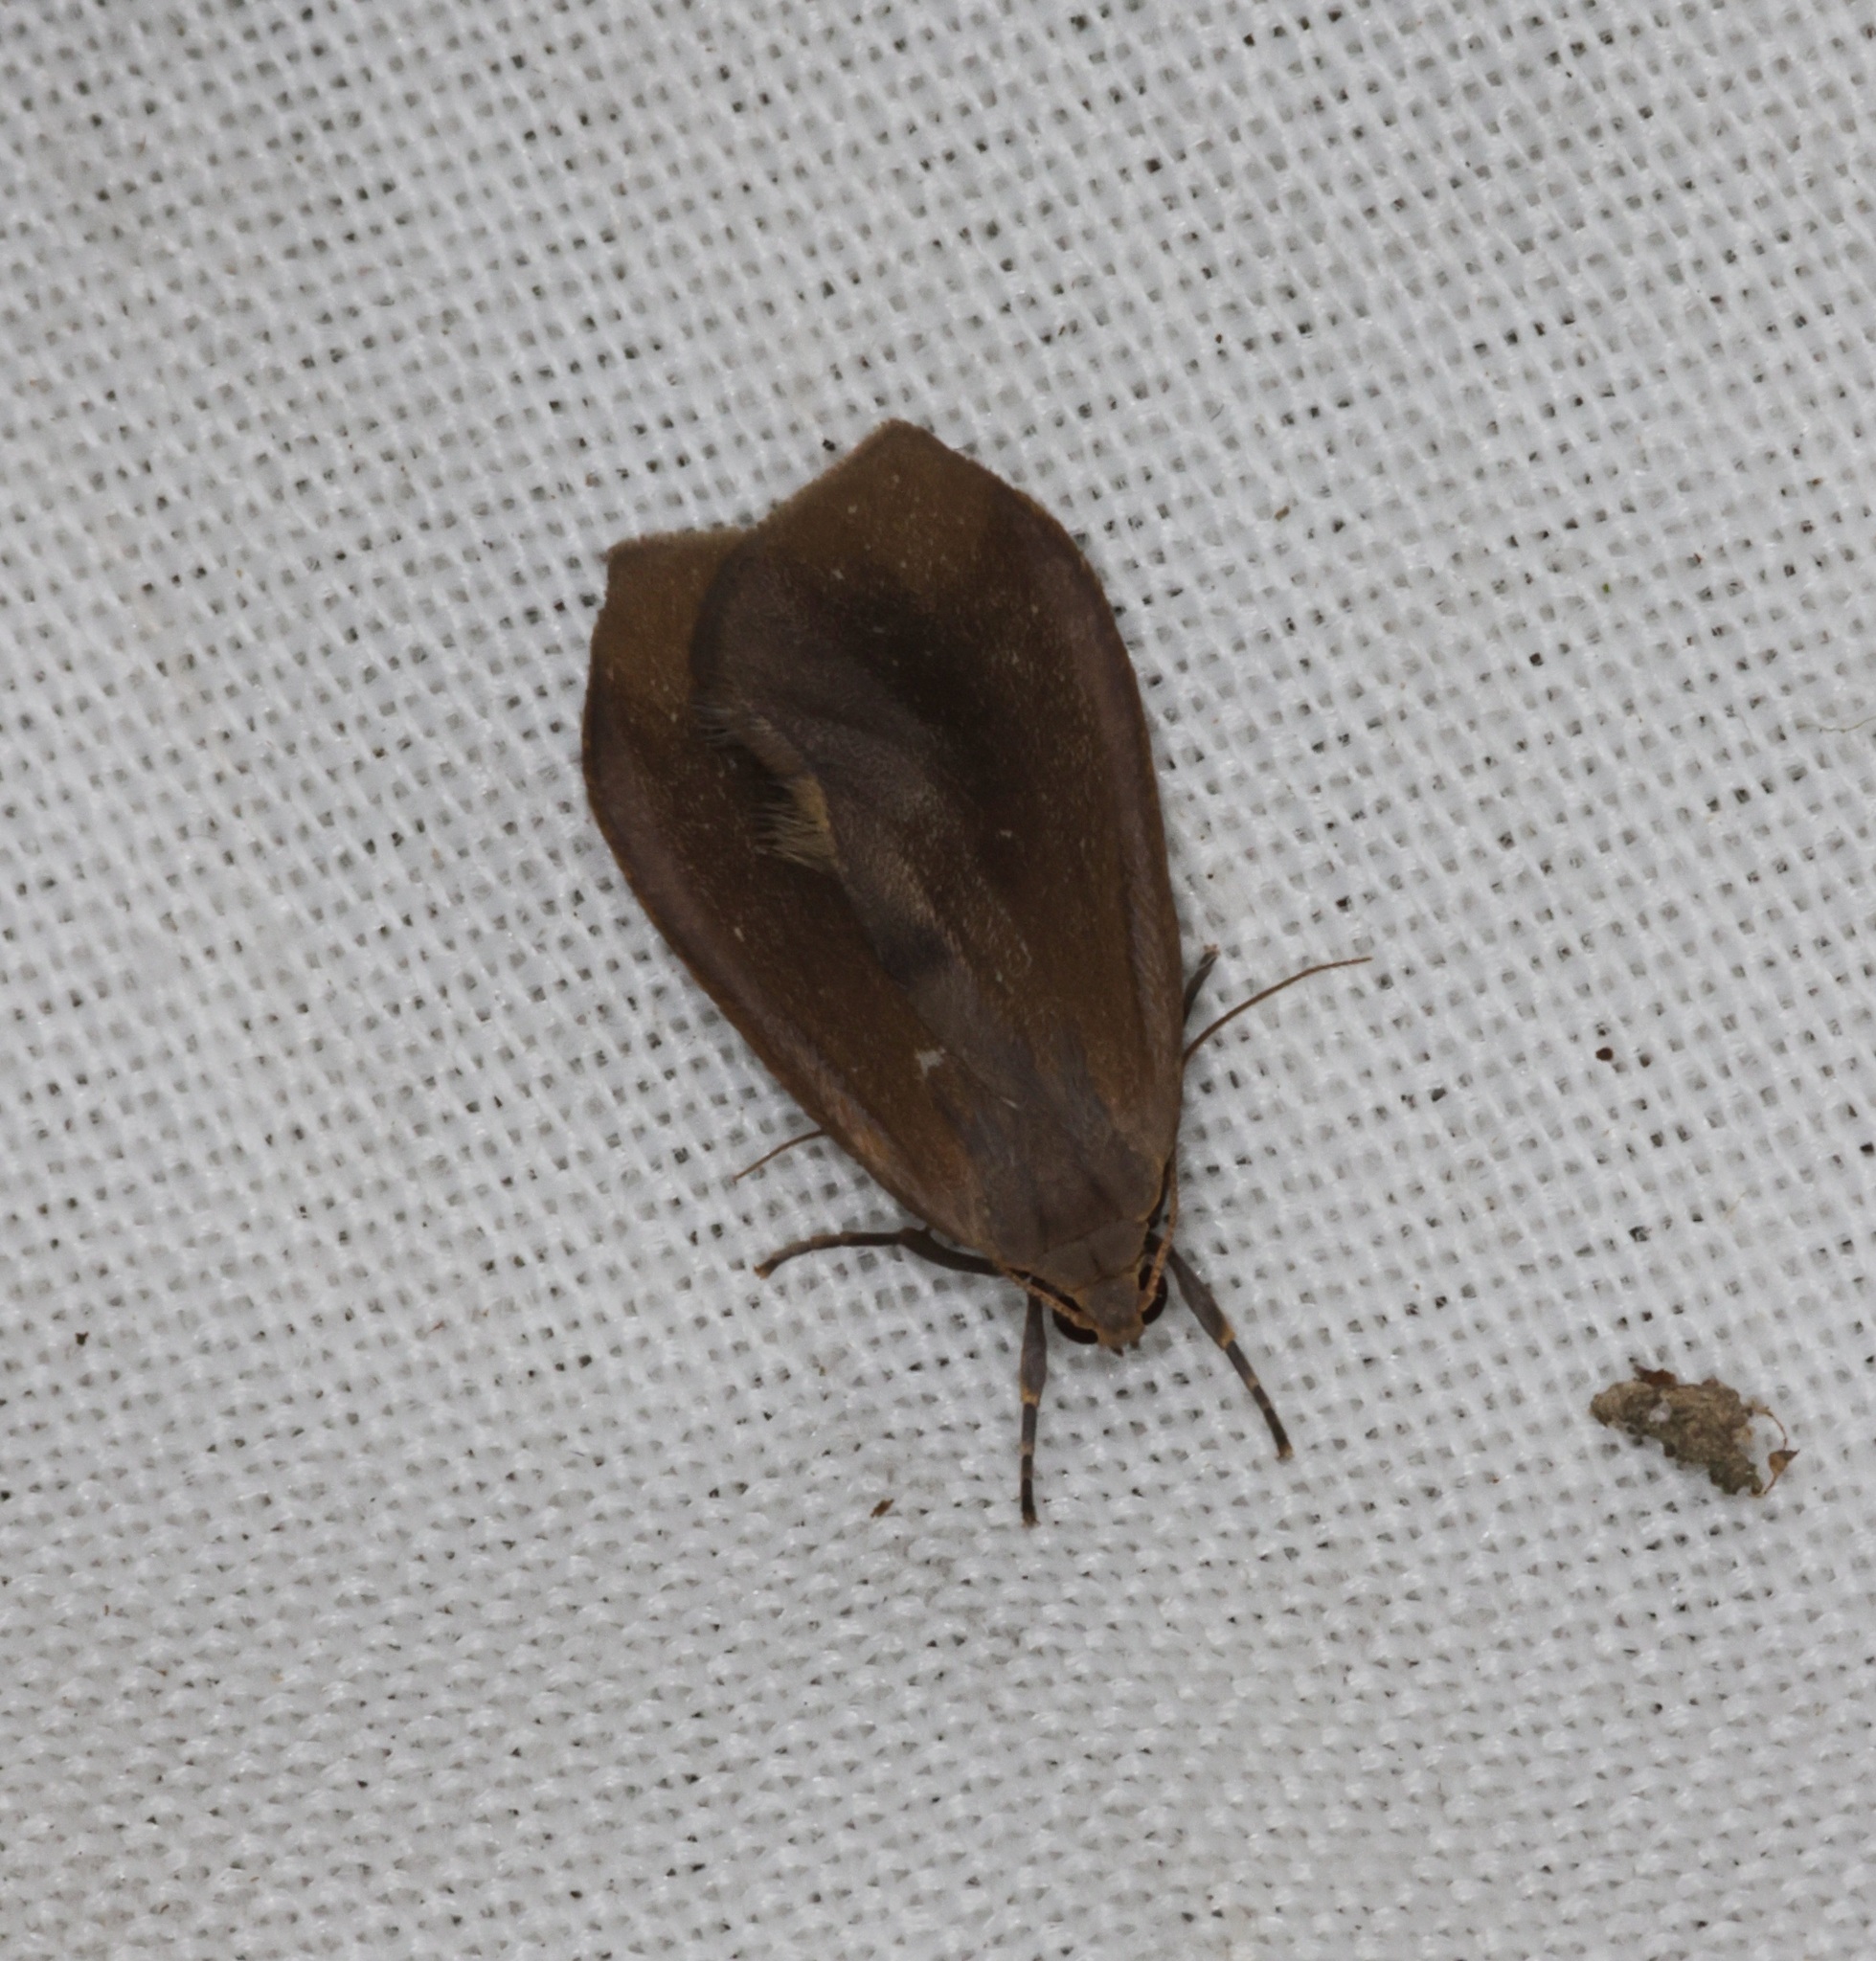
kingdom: Animalia
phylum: Arthropoda
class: Insecta
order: Lepidoptera
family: Erebidae
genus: Gampola
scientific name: Gampola sinica
